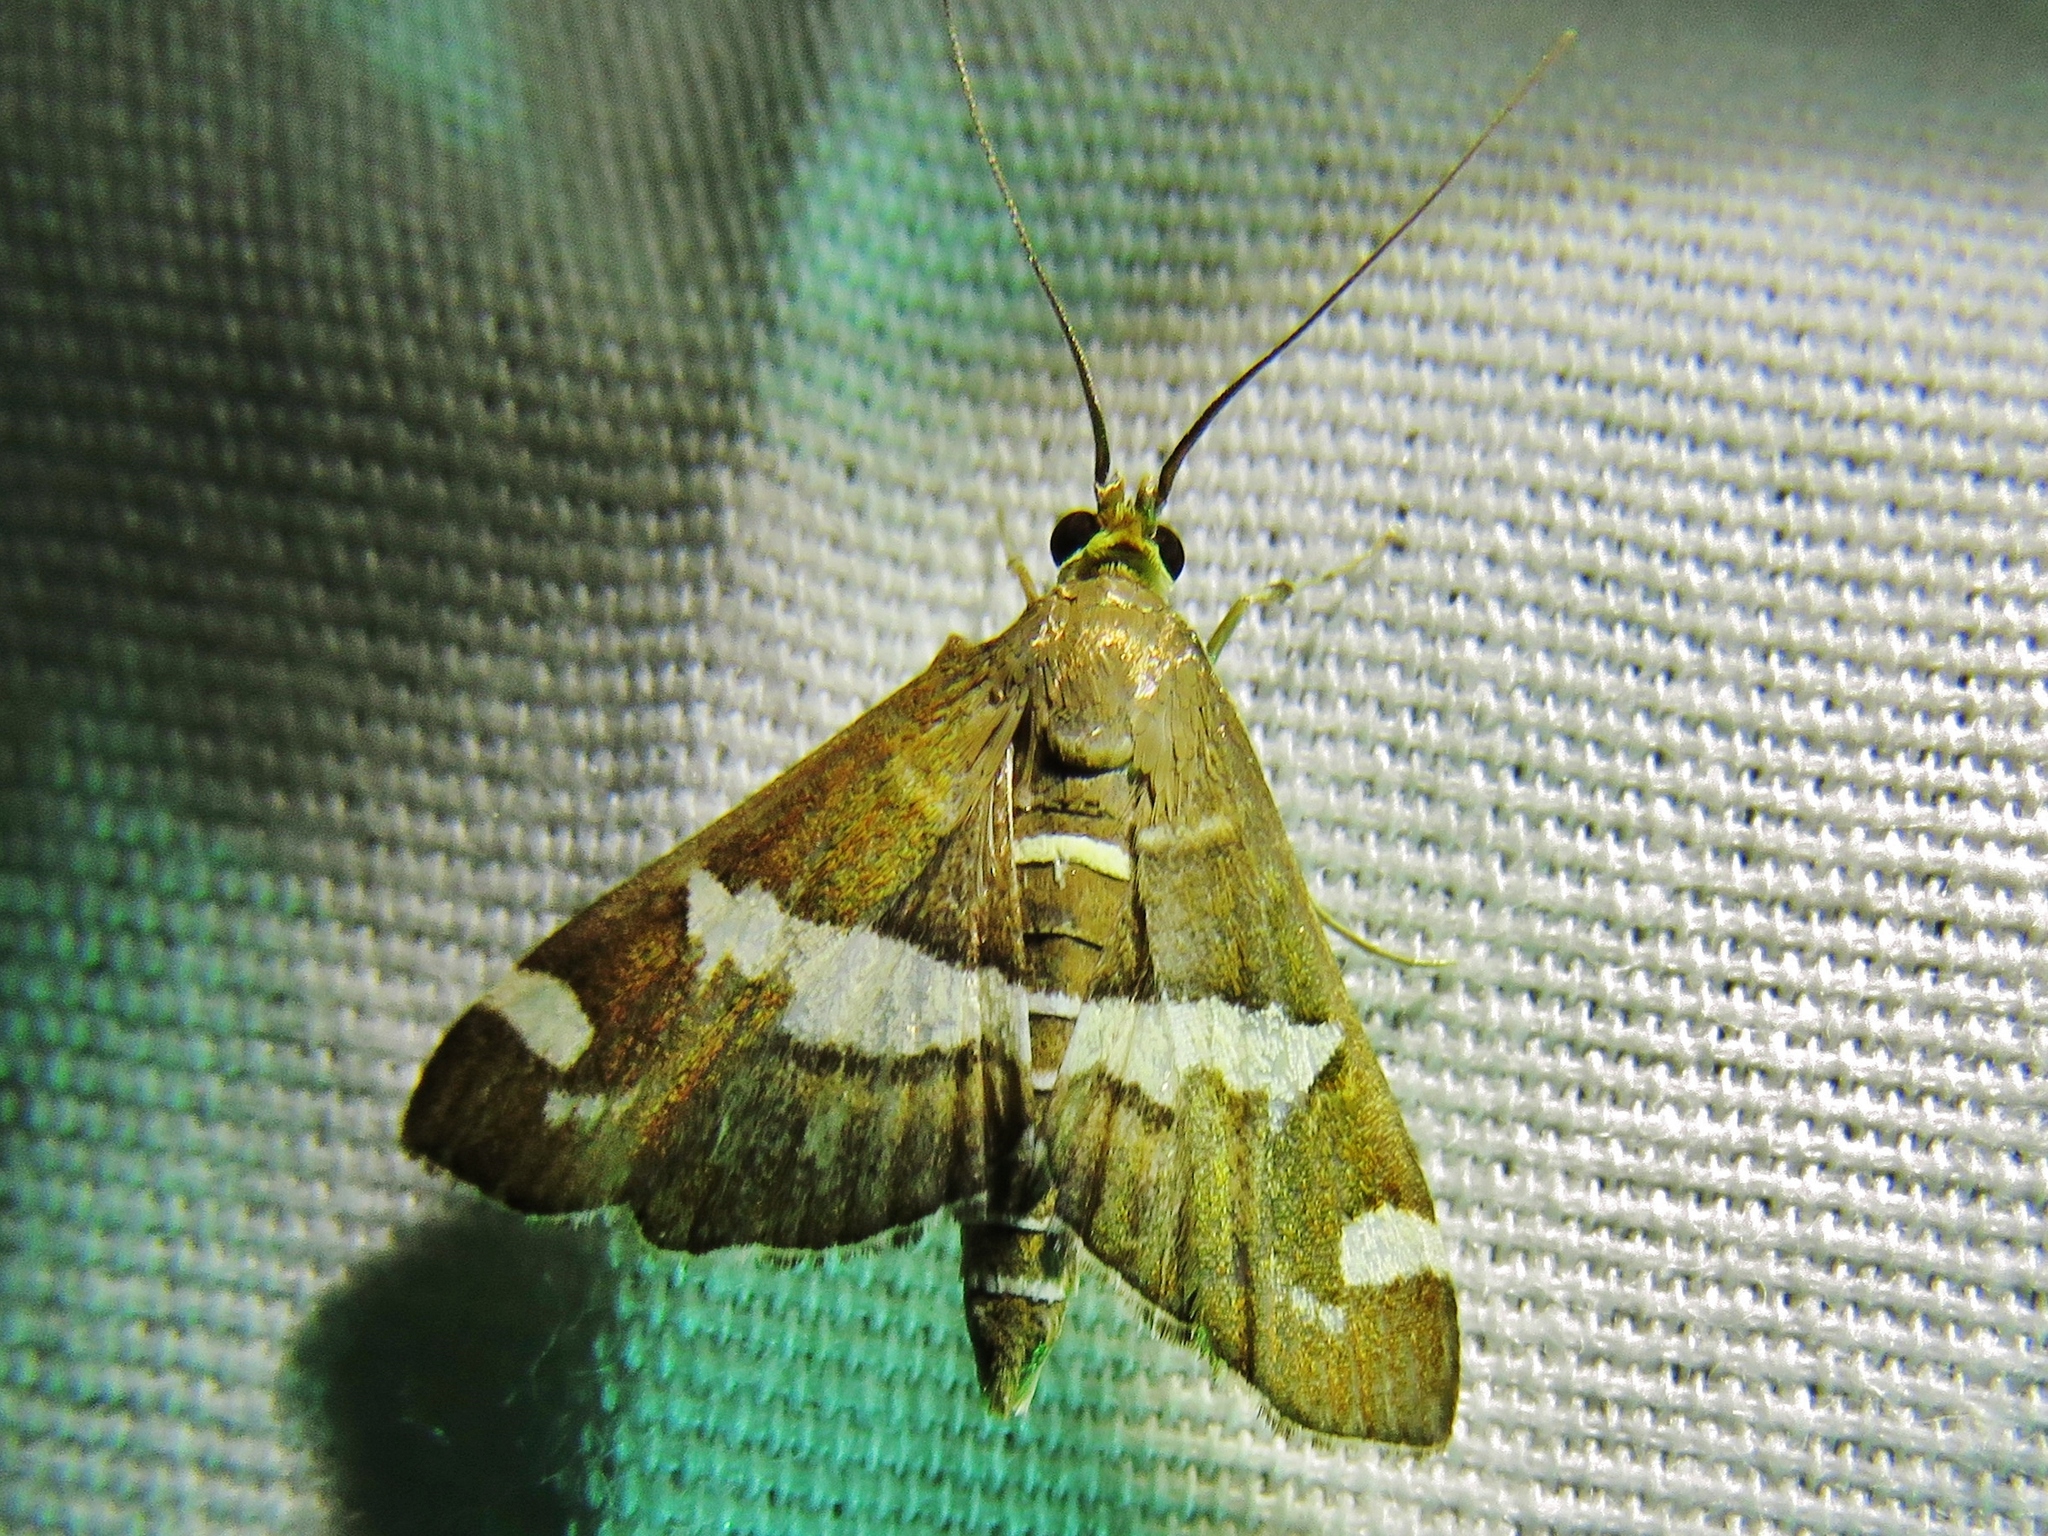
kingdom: Animalia
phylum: Arthropoda
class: Insecta
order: Lepidoptera
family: Crambidae
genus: Spoladea
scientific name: Spoladea recurvalis
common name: Beet webworm moth
